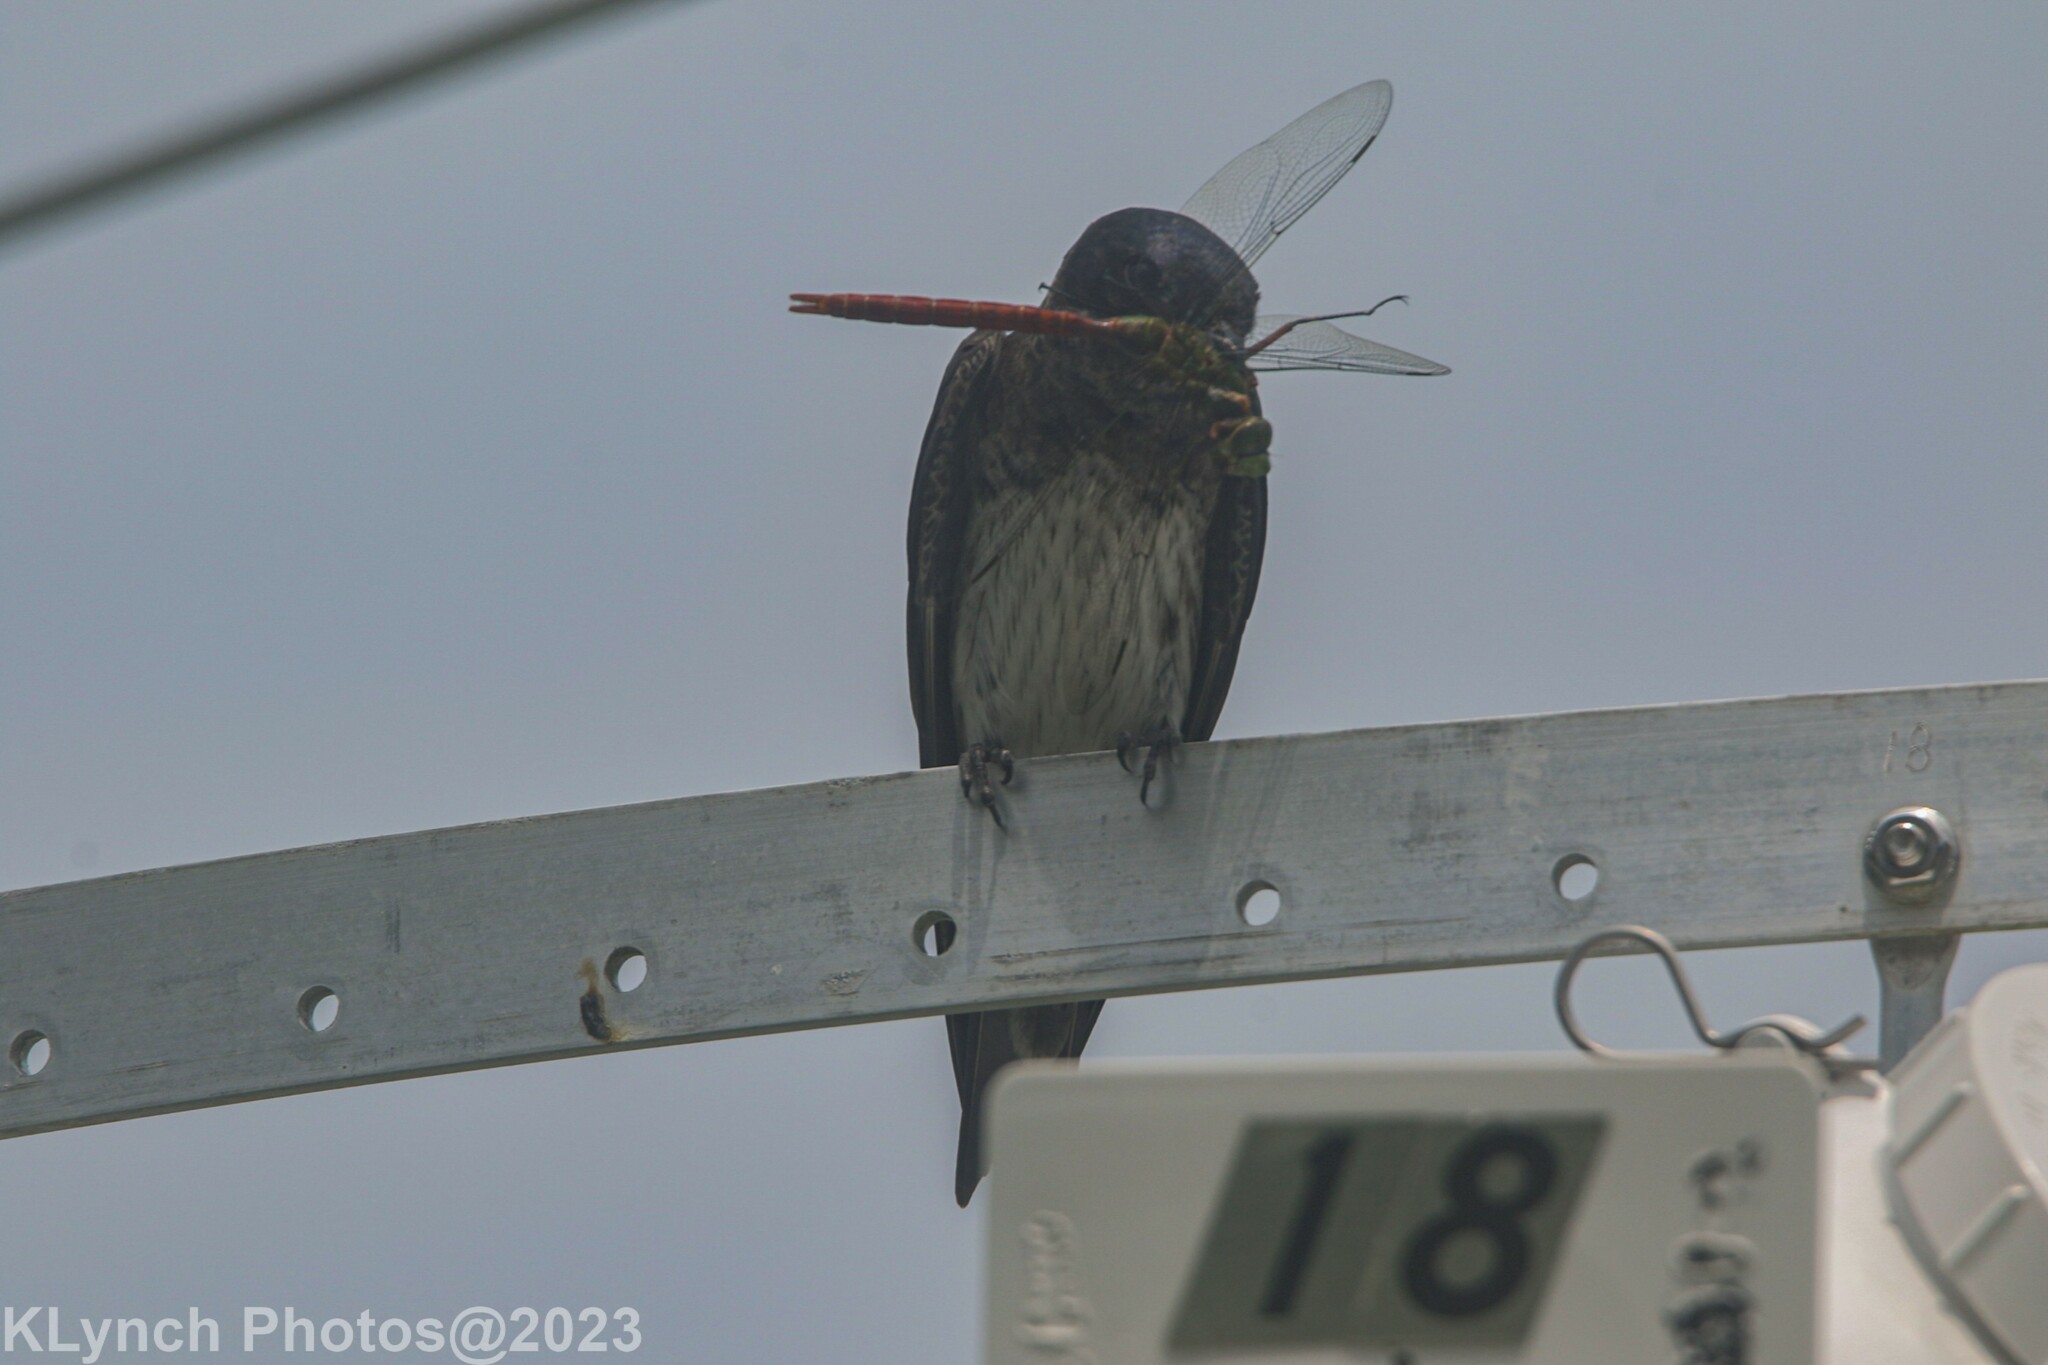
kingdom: Animalia
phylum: Chordata
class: Aves
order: Passeriformes
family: Hirundinidae
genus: Progne
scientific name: Progne subis
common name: Purple martin
